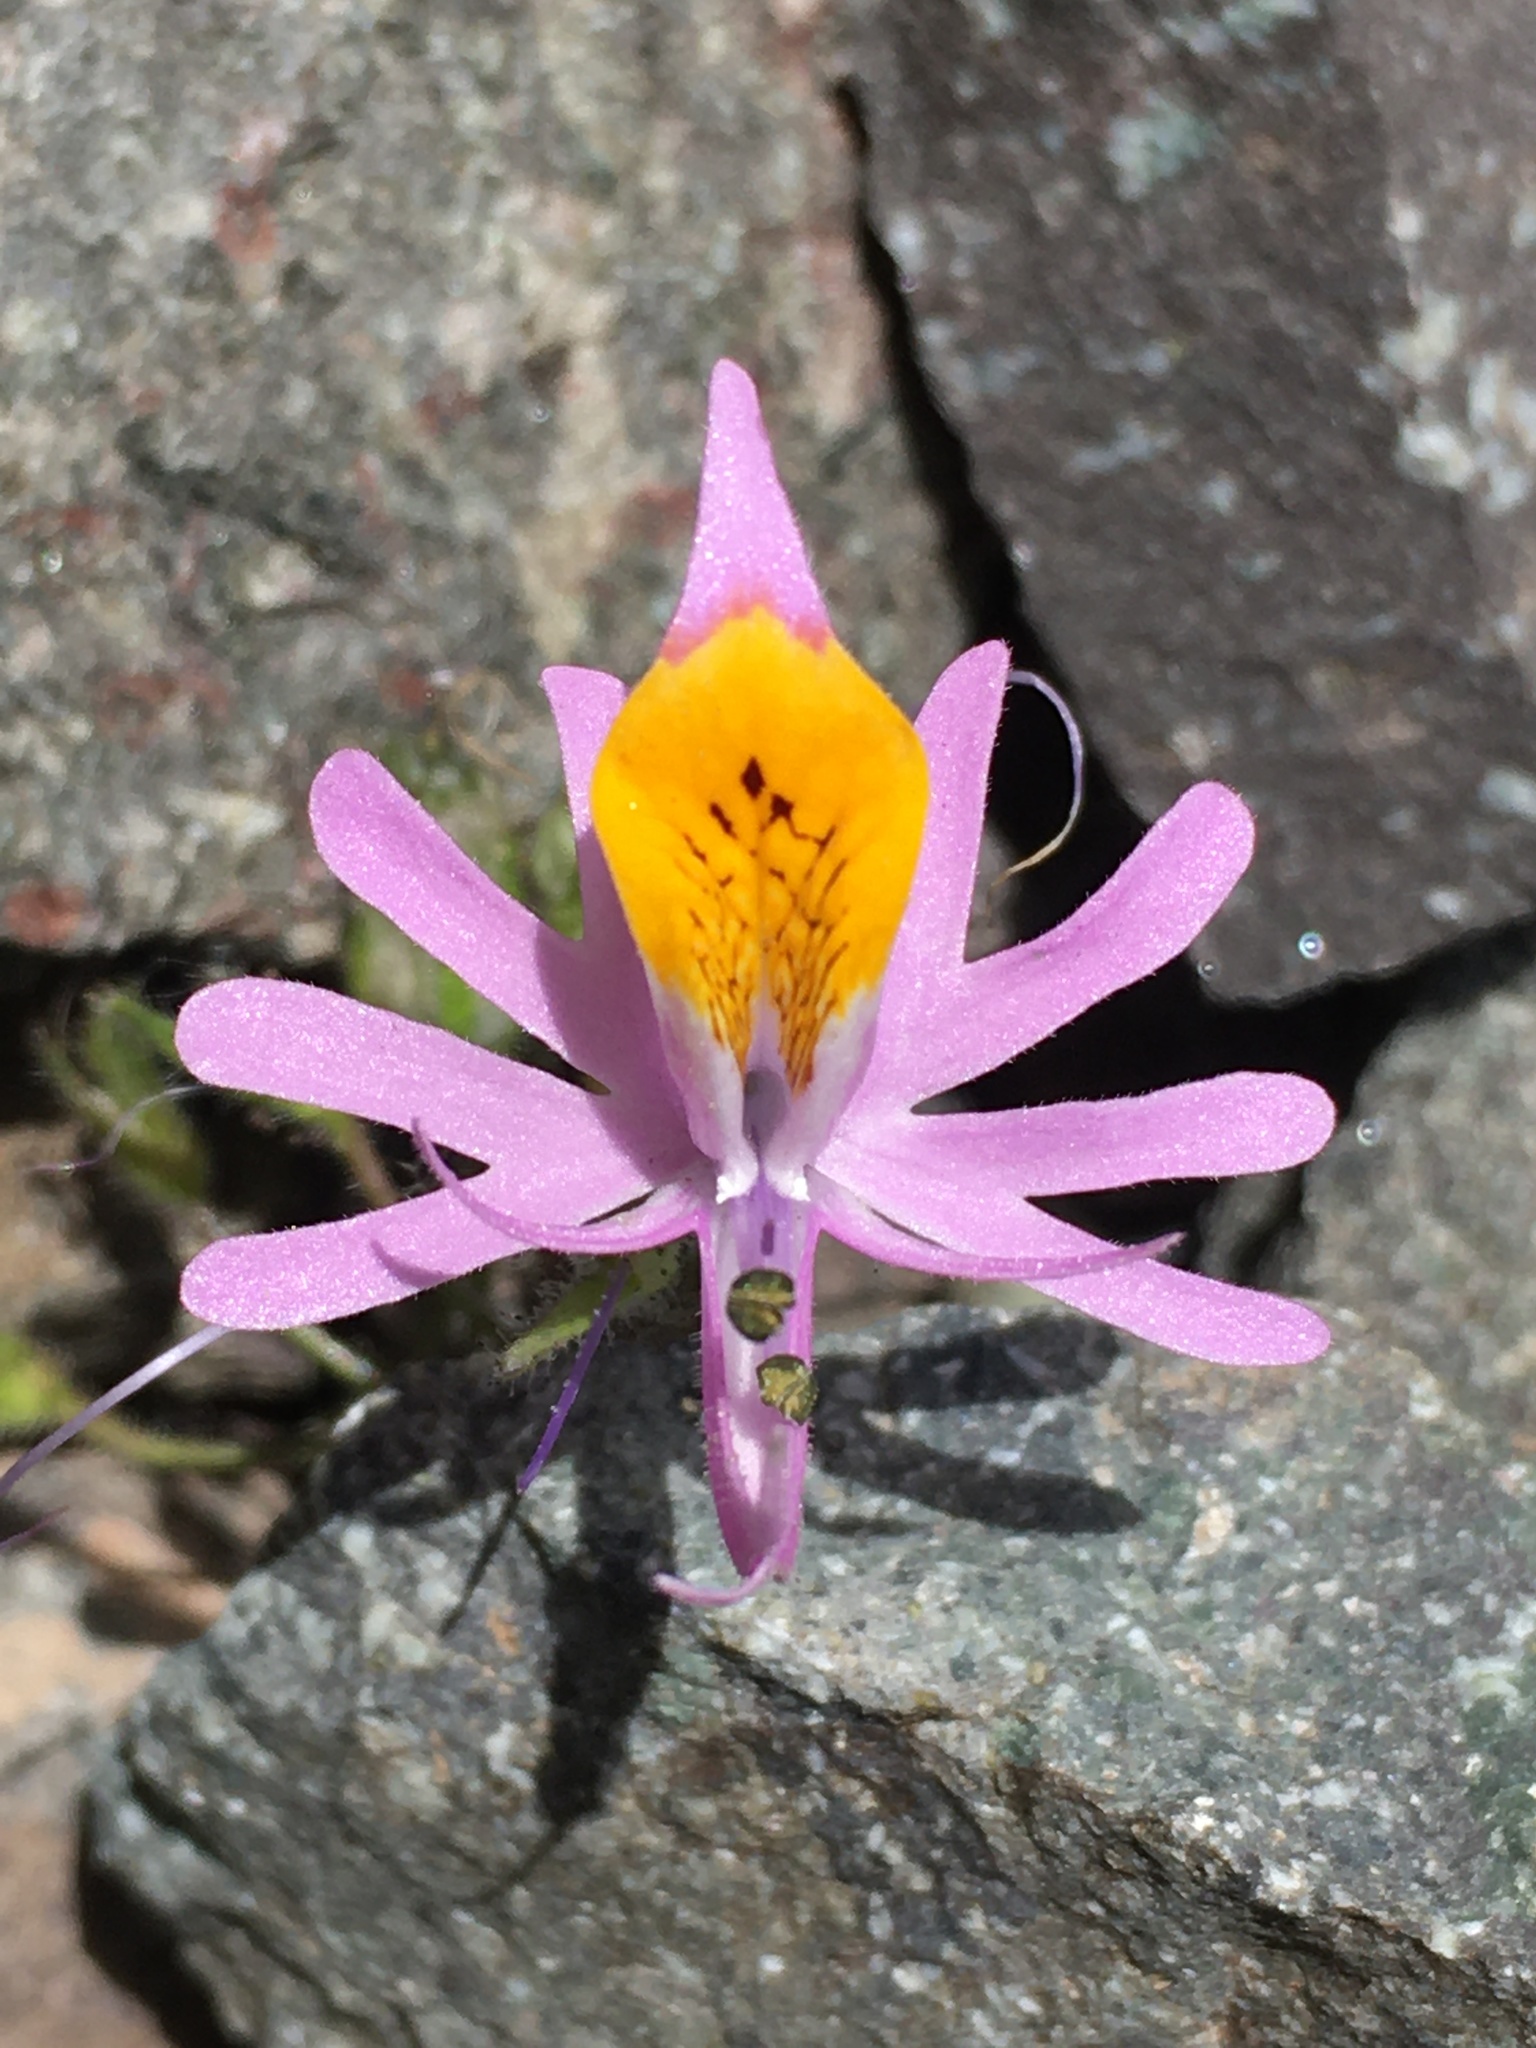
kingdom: Plantae
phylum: Tracheophyta
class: Magnoliopsida
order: Solanales
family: Solanaceae
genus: Schizanthus
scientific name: Schizanthus hookeri
